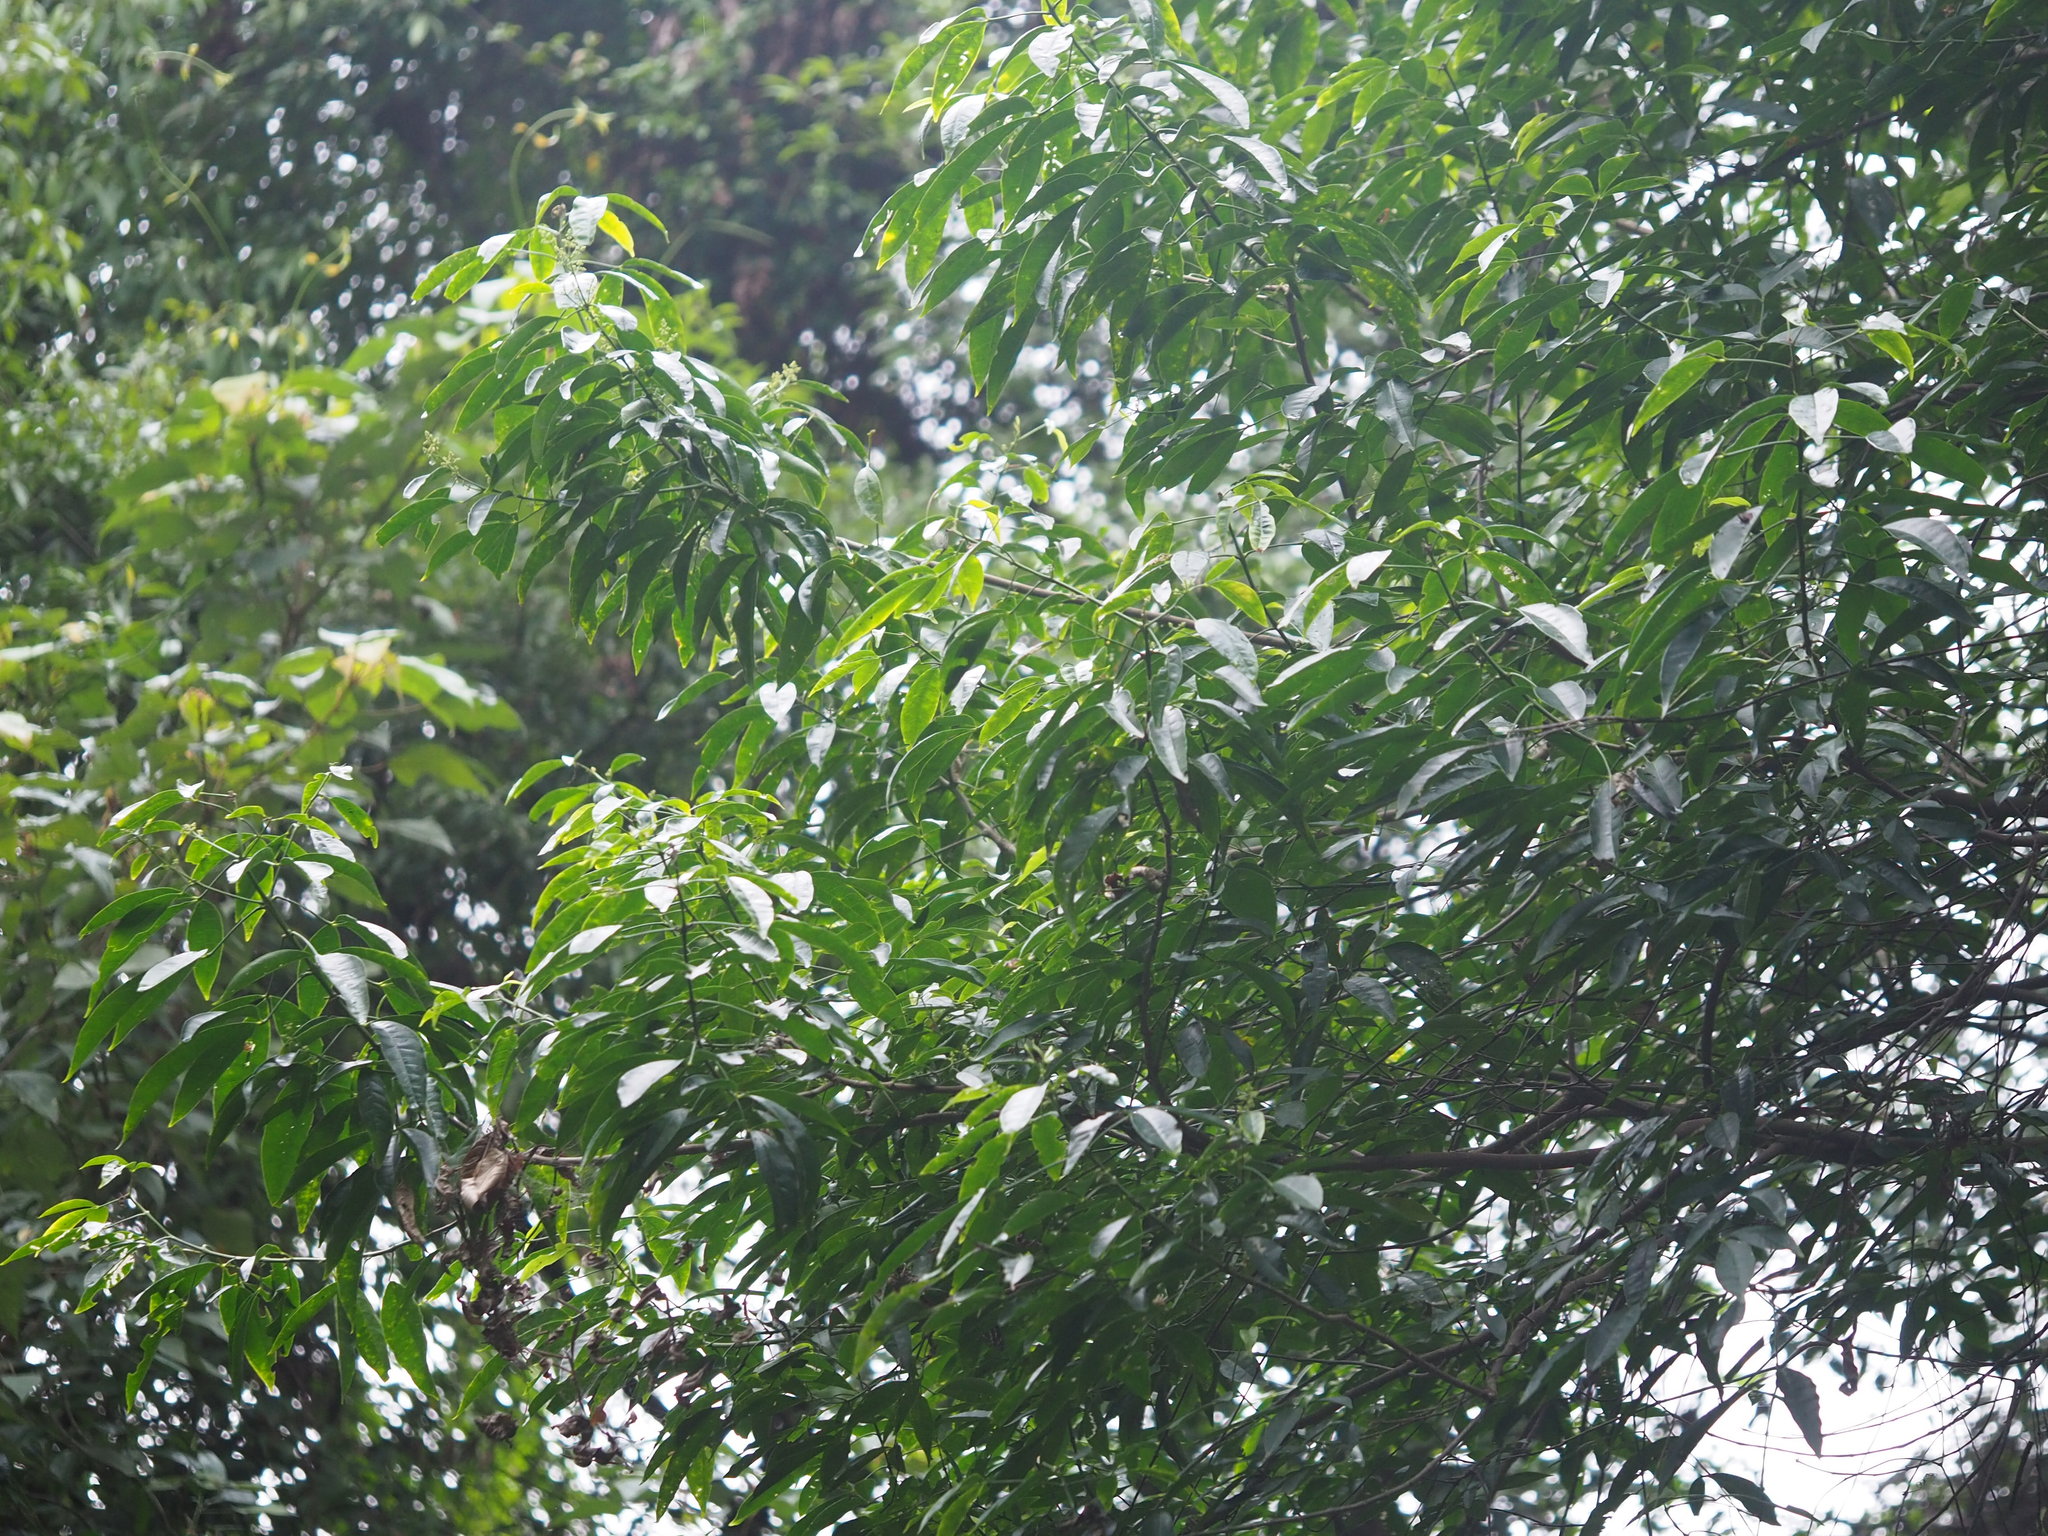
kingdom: Plantae
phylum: Tracheophyta
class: Magnoliopsida
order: Sapindales
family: Rutaceae
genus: Melicope
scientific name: Melicope pteleifolia
